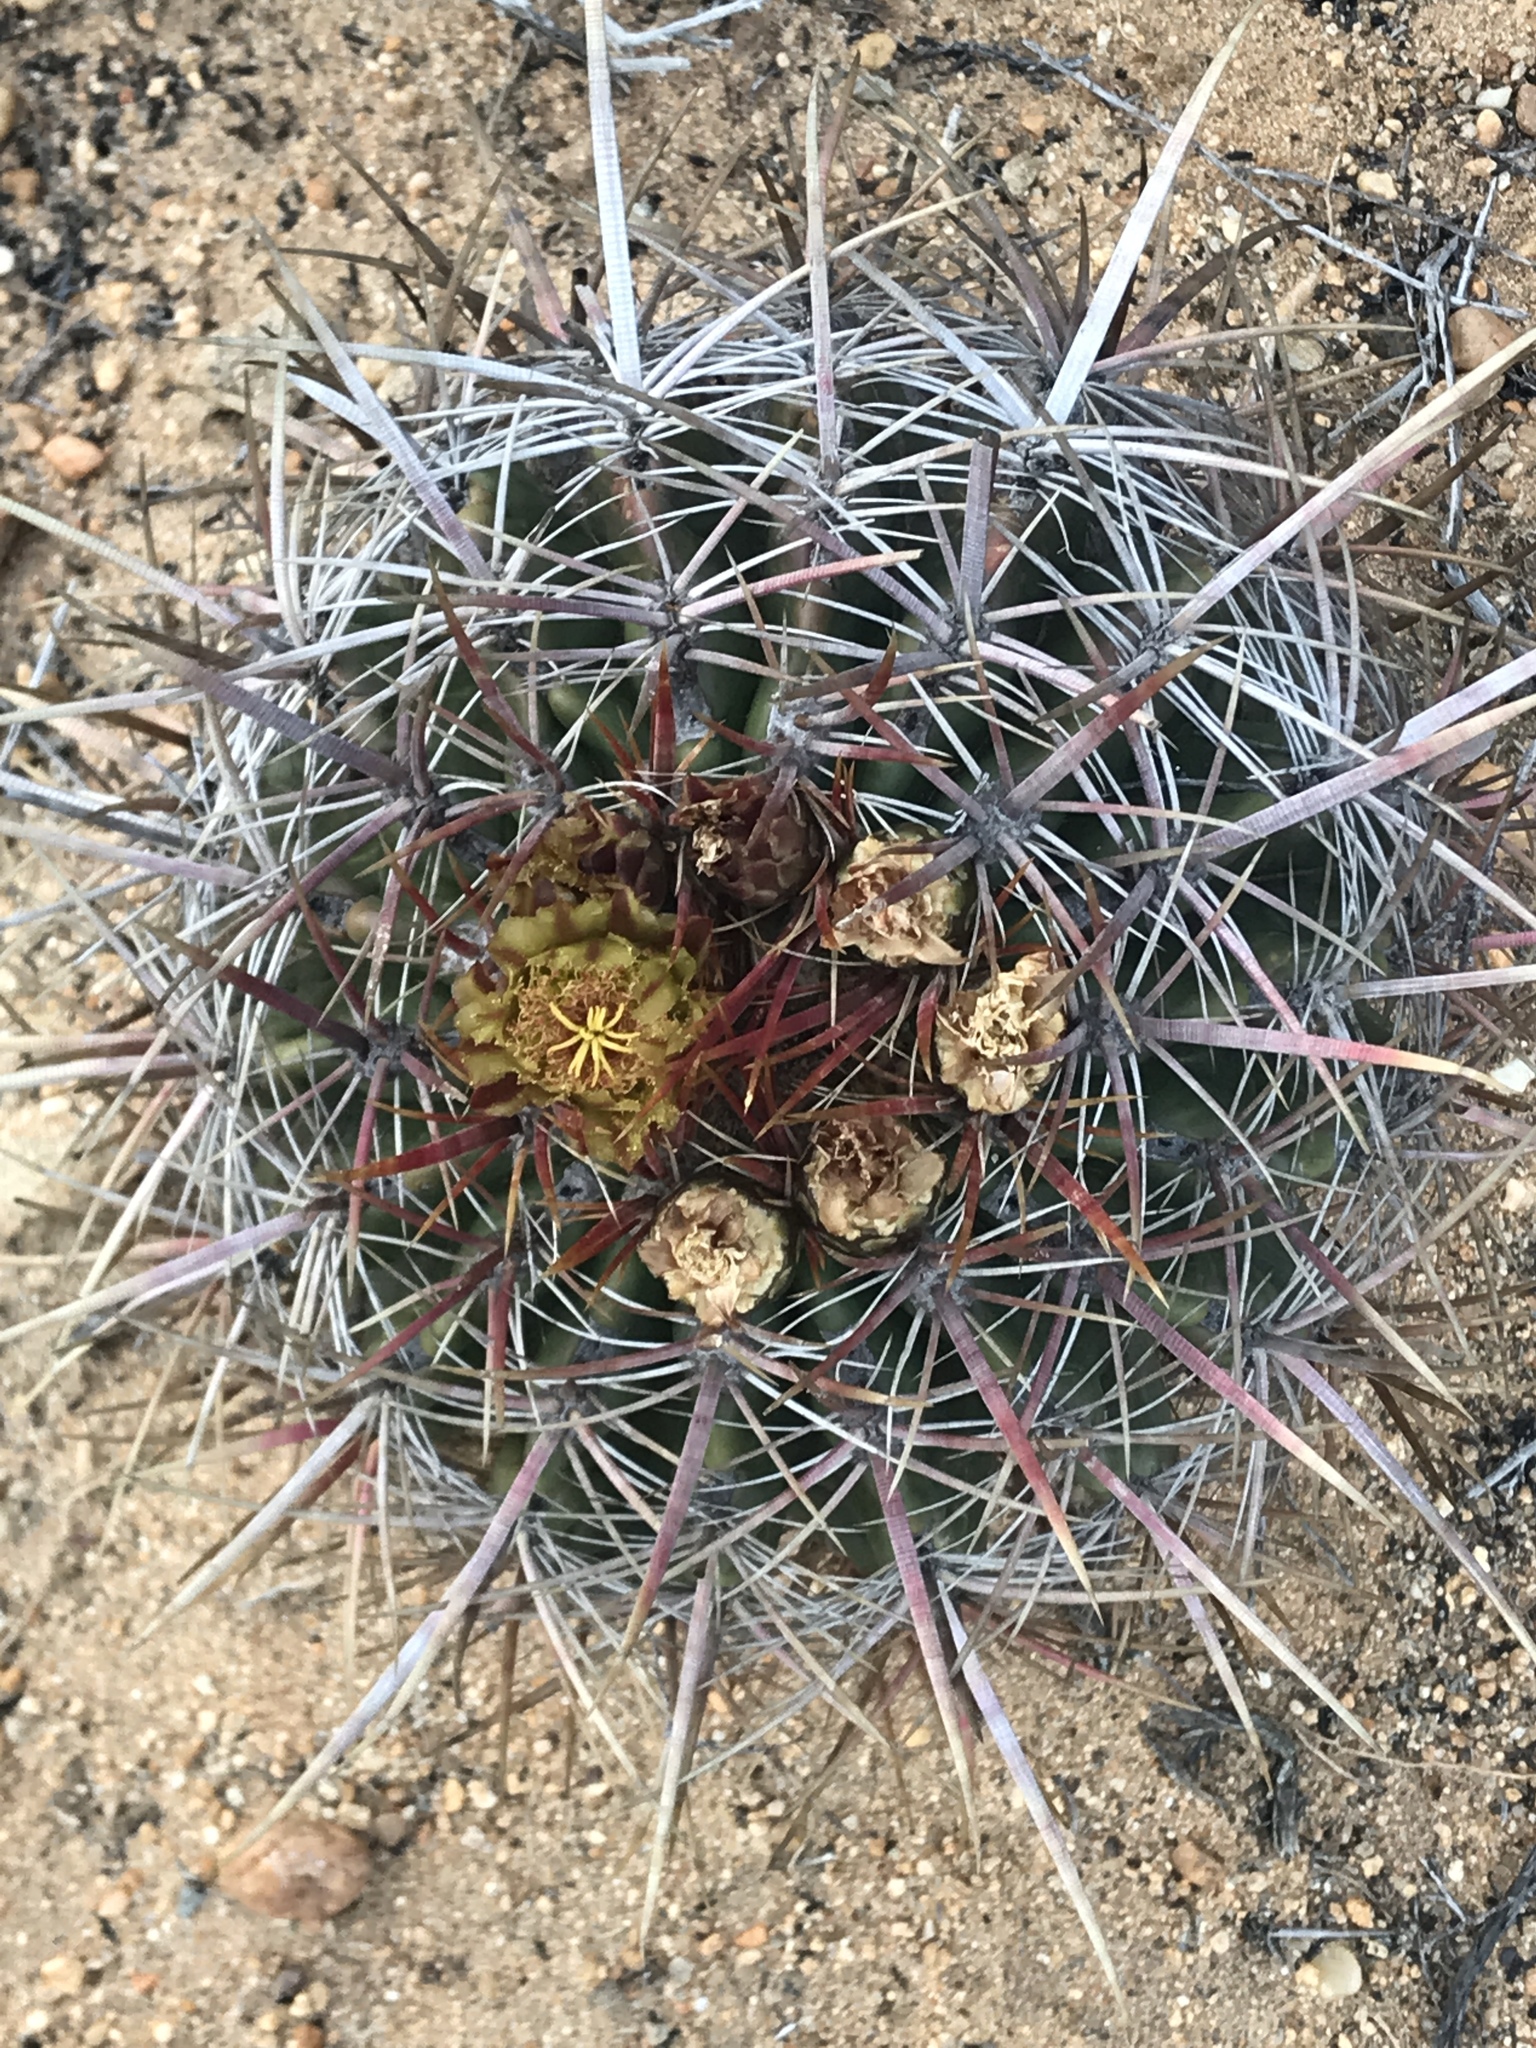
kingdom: Plantae
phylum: Tracheophyta
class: Magnoliopsida
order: Caryophyllales
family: Cactaceae
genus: Ferocactus
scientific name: Ferocactus viridescens
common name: San diego barrel cactus
